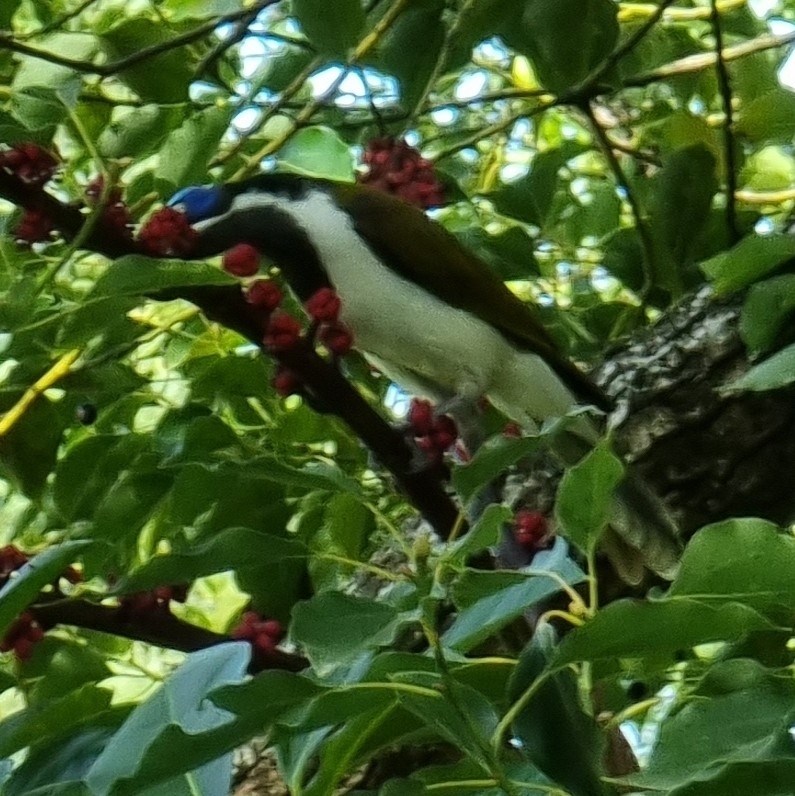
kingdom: Animalia
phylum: Chordata
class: Aves
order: Passeriformes
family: Meliphagidae
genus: Entomyzon
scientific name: Entomyzon cyanotis
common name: Blue-faced honeyeater
